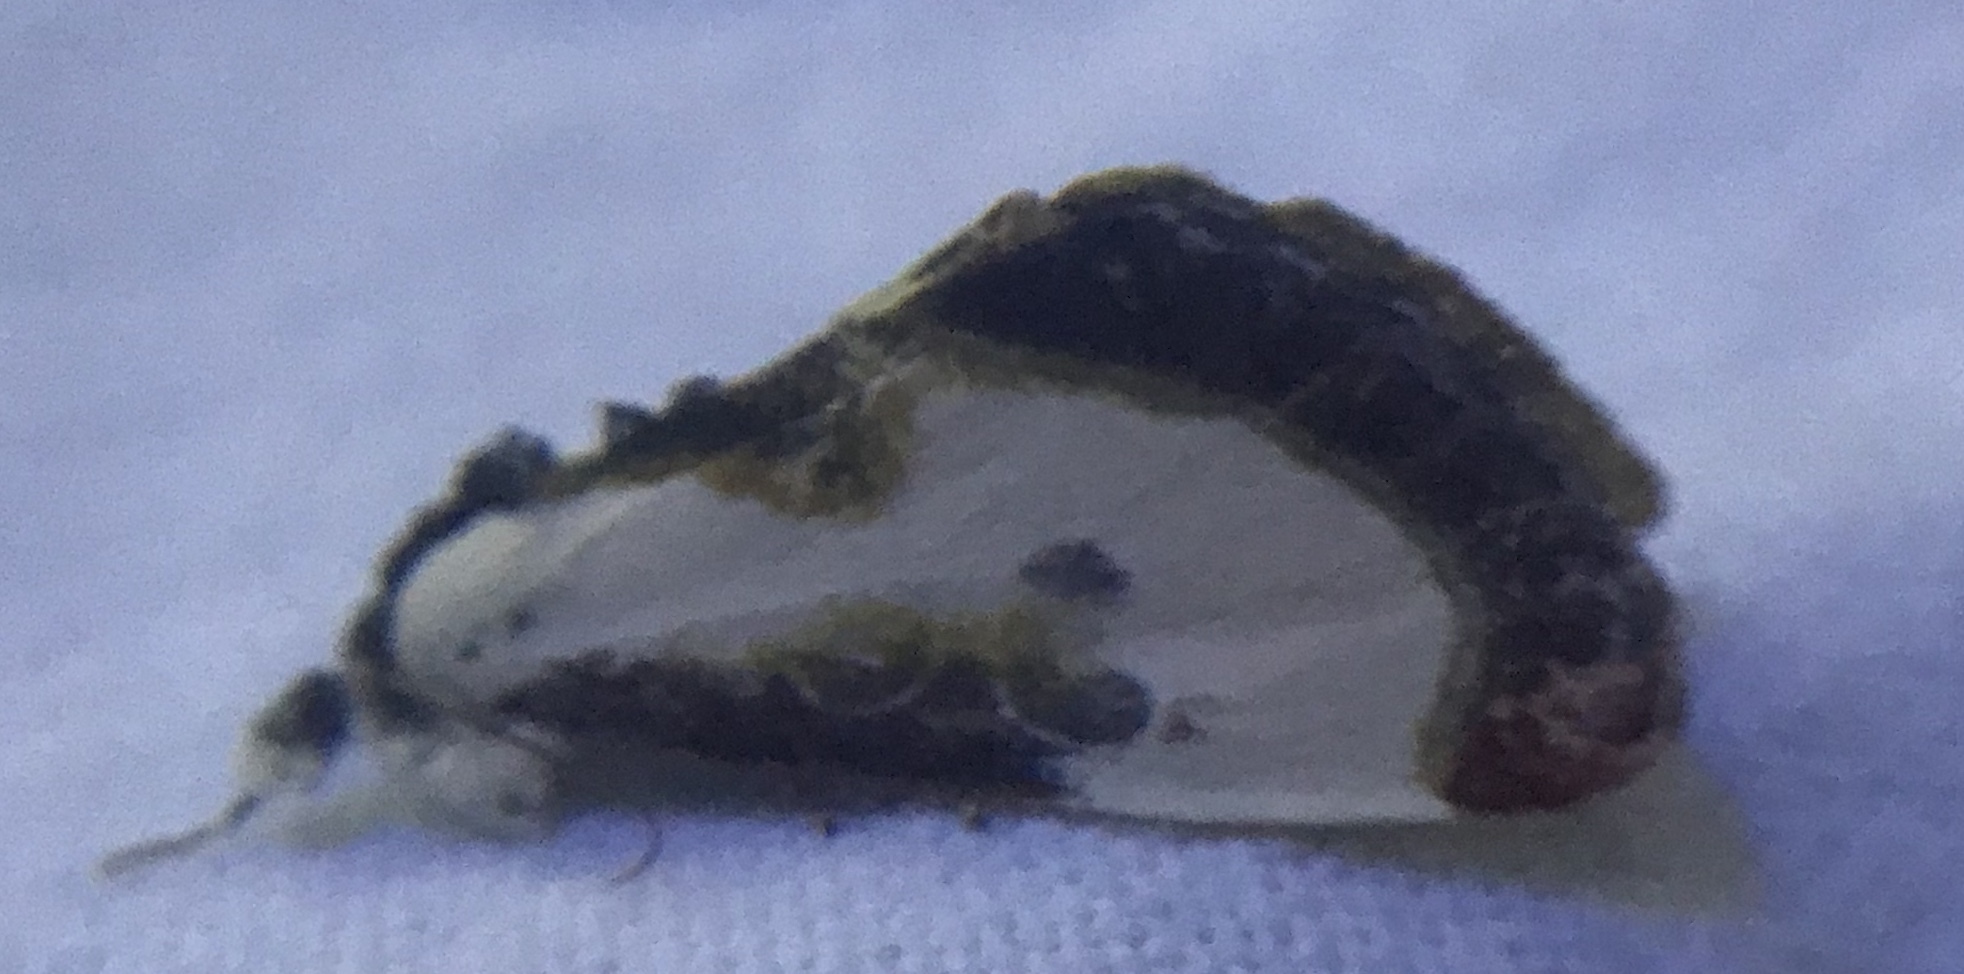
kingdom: Animalia
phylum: Arthropoda
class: Insecta
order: Lepidoptera
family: Noctuidae
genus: Eudryas
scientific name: Eudryas grata
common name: Beautiful wood-nymph
